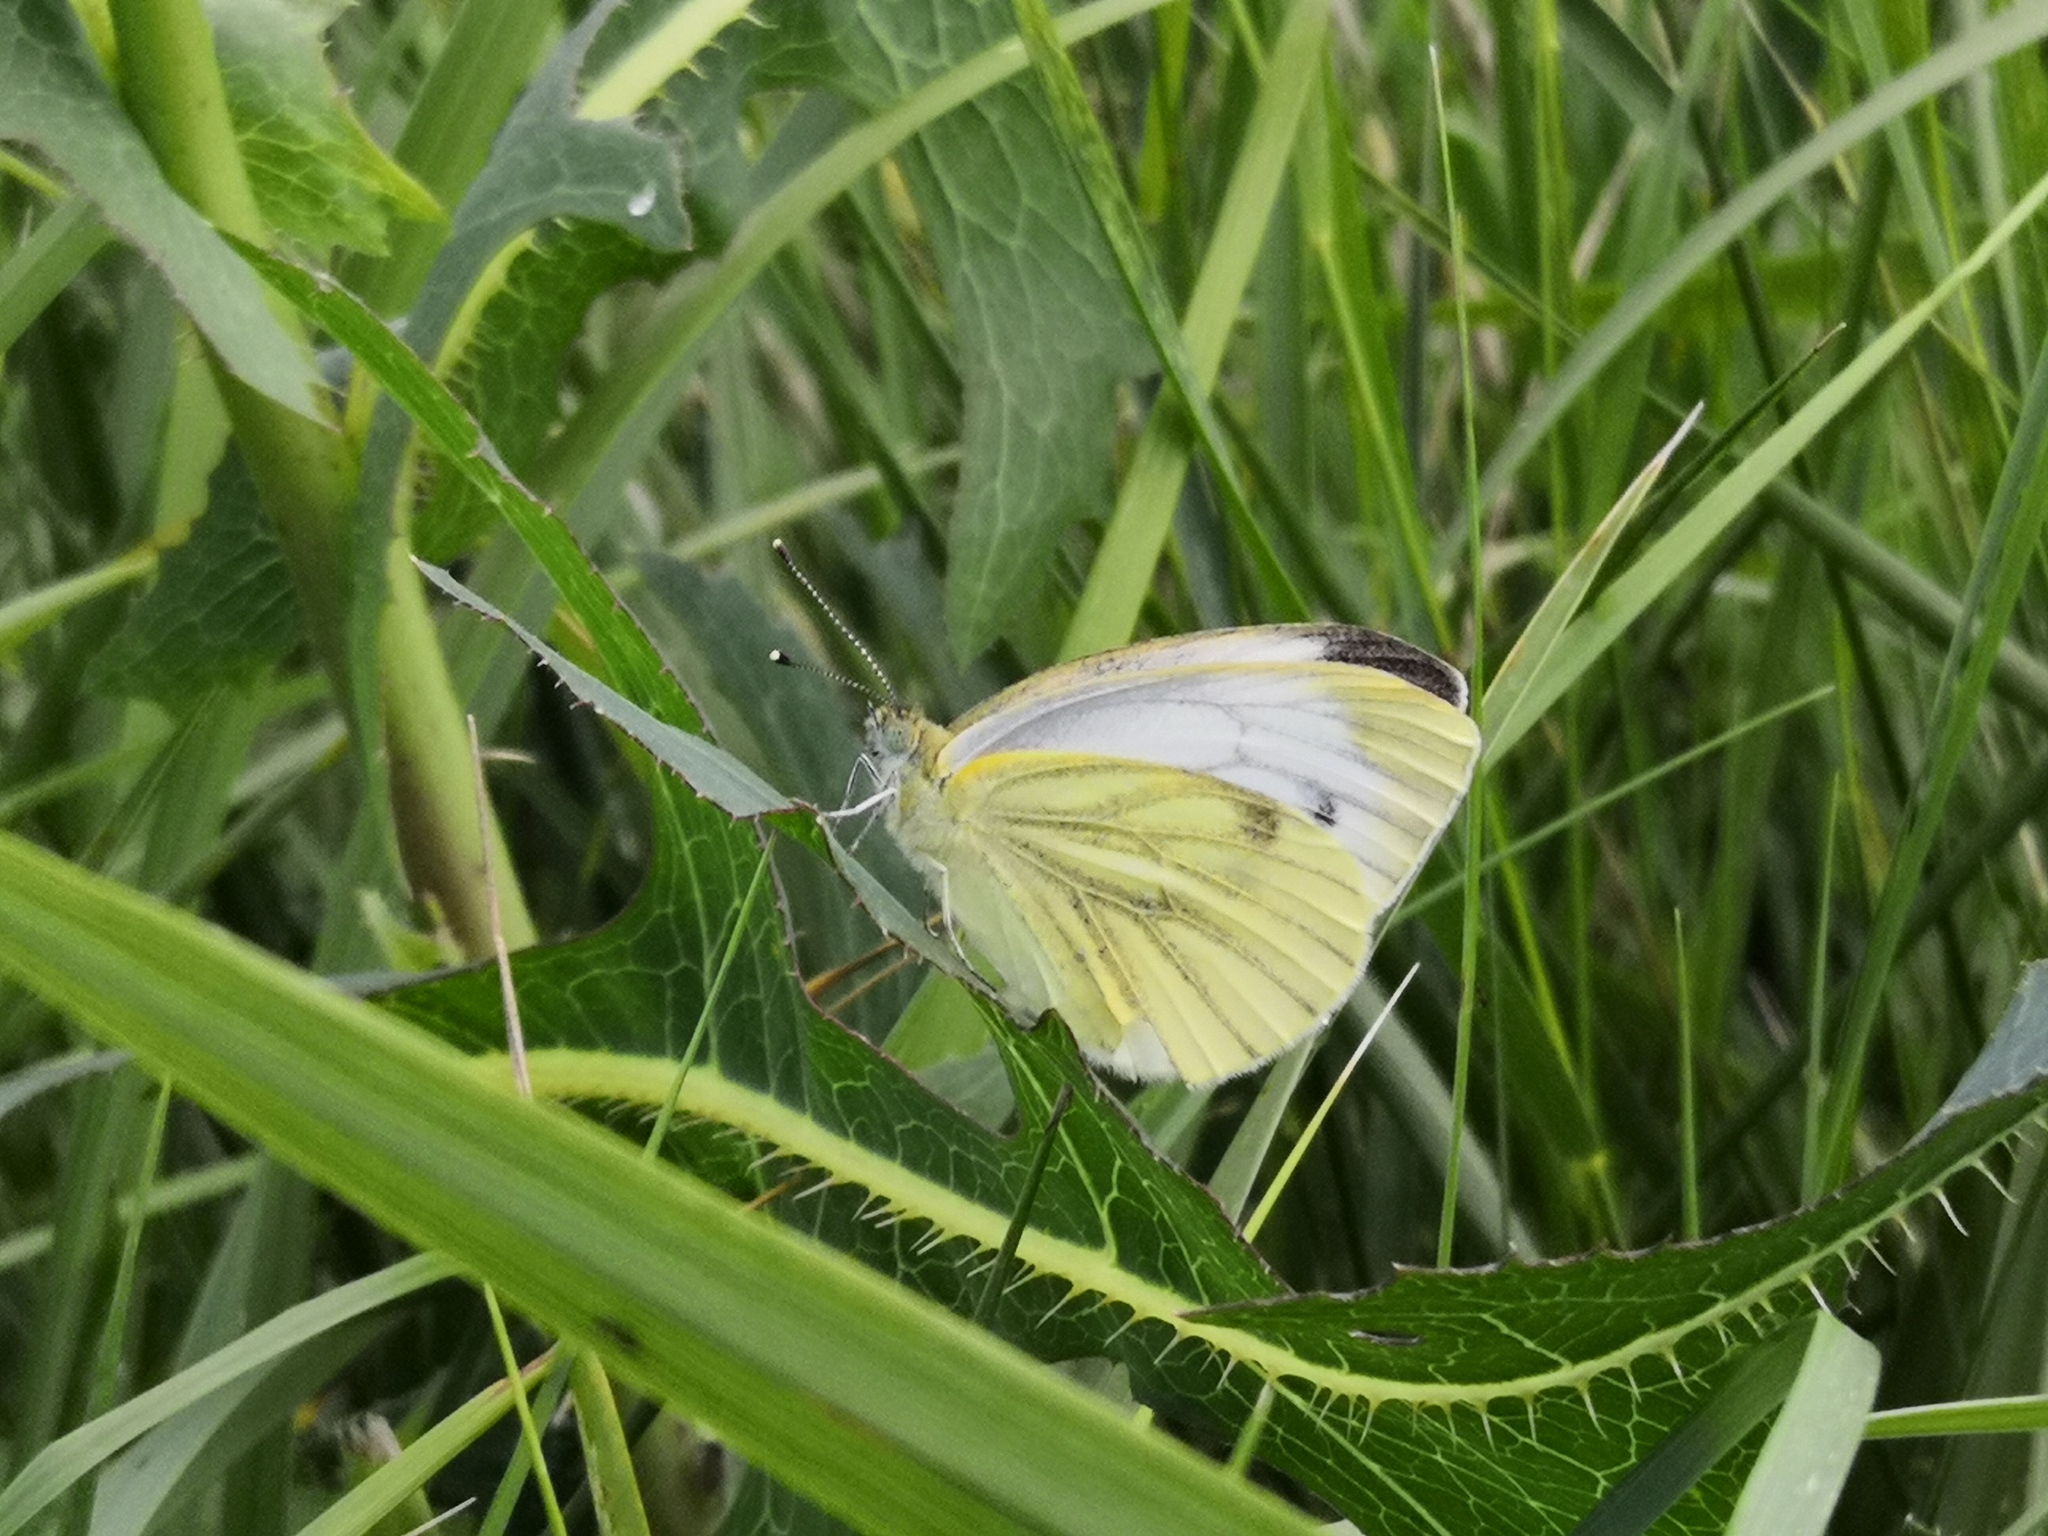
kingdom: Animalia
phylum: Arthropoda
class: Insecta
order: Lepidoptera
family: Pieridae
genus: Pieris
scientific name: Pieris napi
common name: Green-veined white
